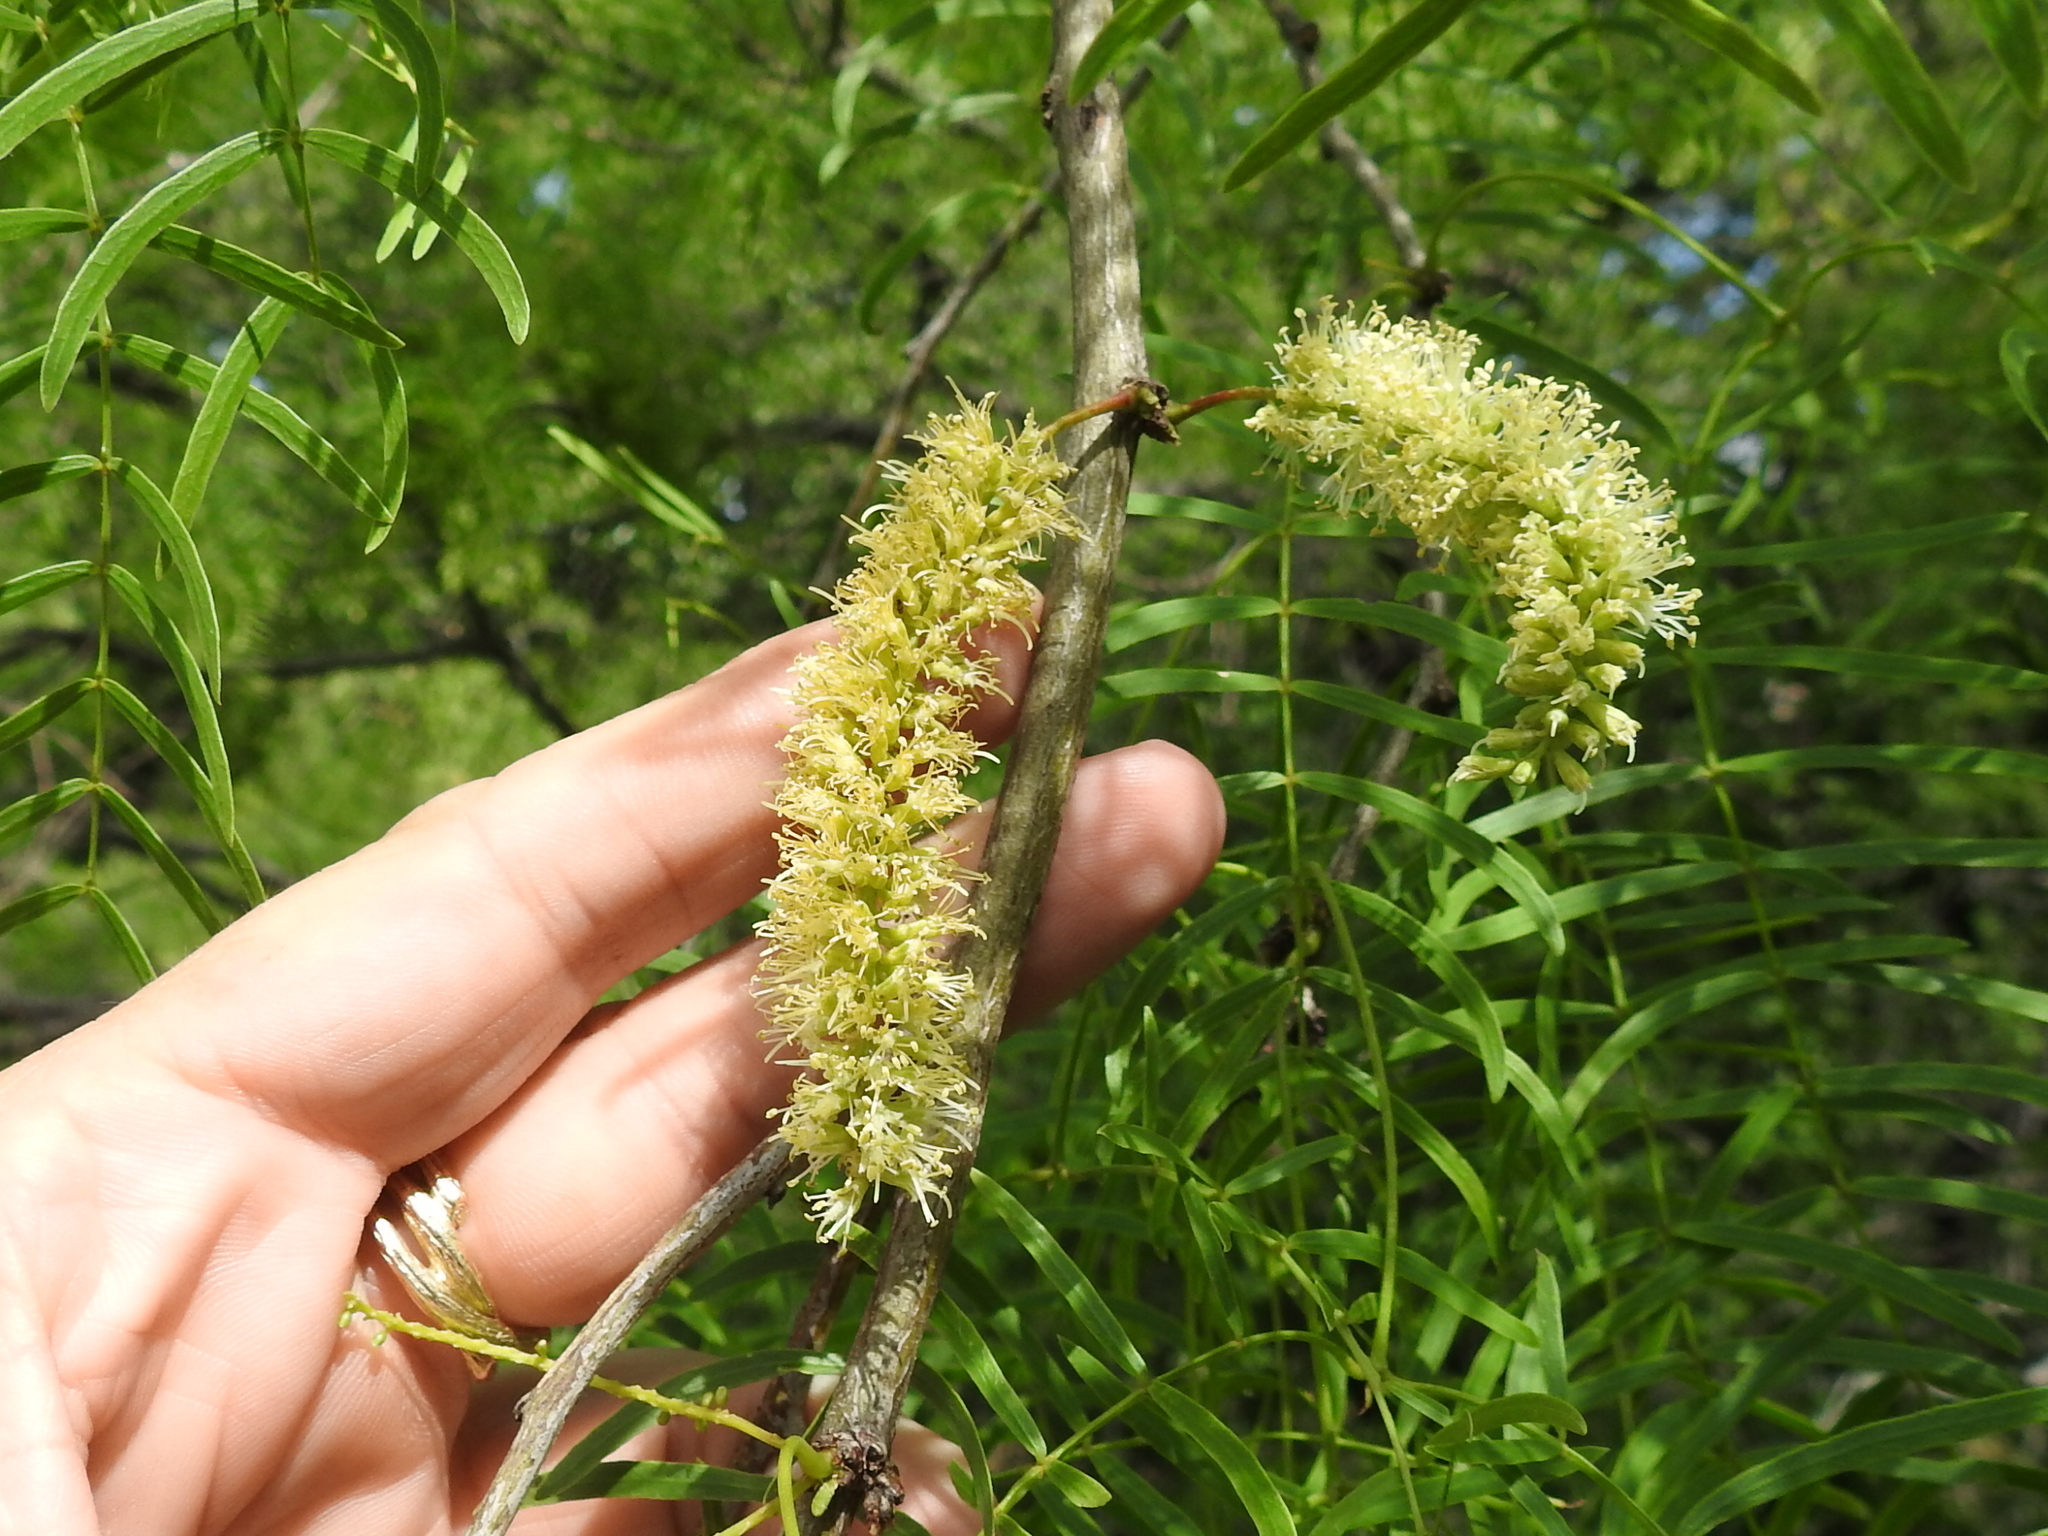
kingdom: Plantae
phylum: Tracheophyta
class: Magnoliopsida
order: Fabales
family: Fabaceae
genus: Prosopis
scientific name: Prosopis glandulosa
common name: Honey mesquite
